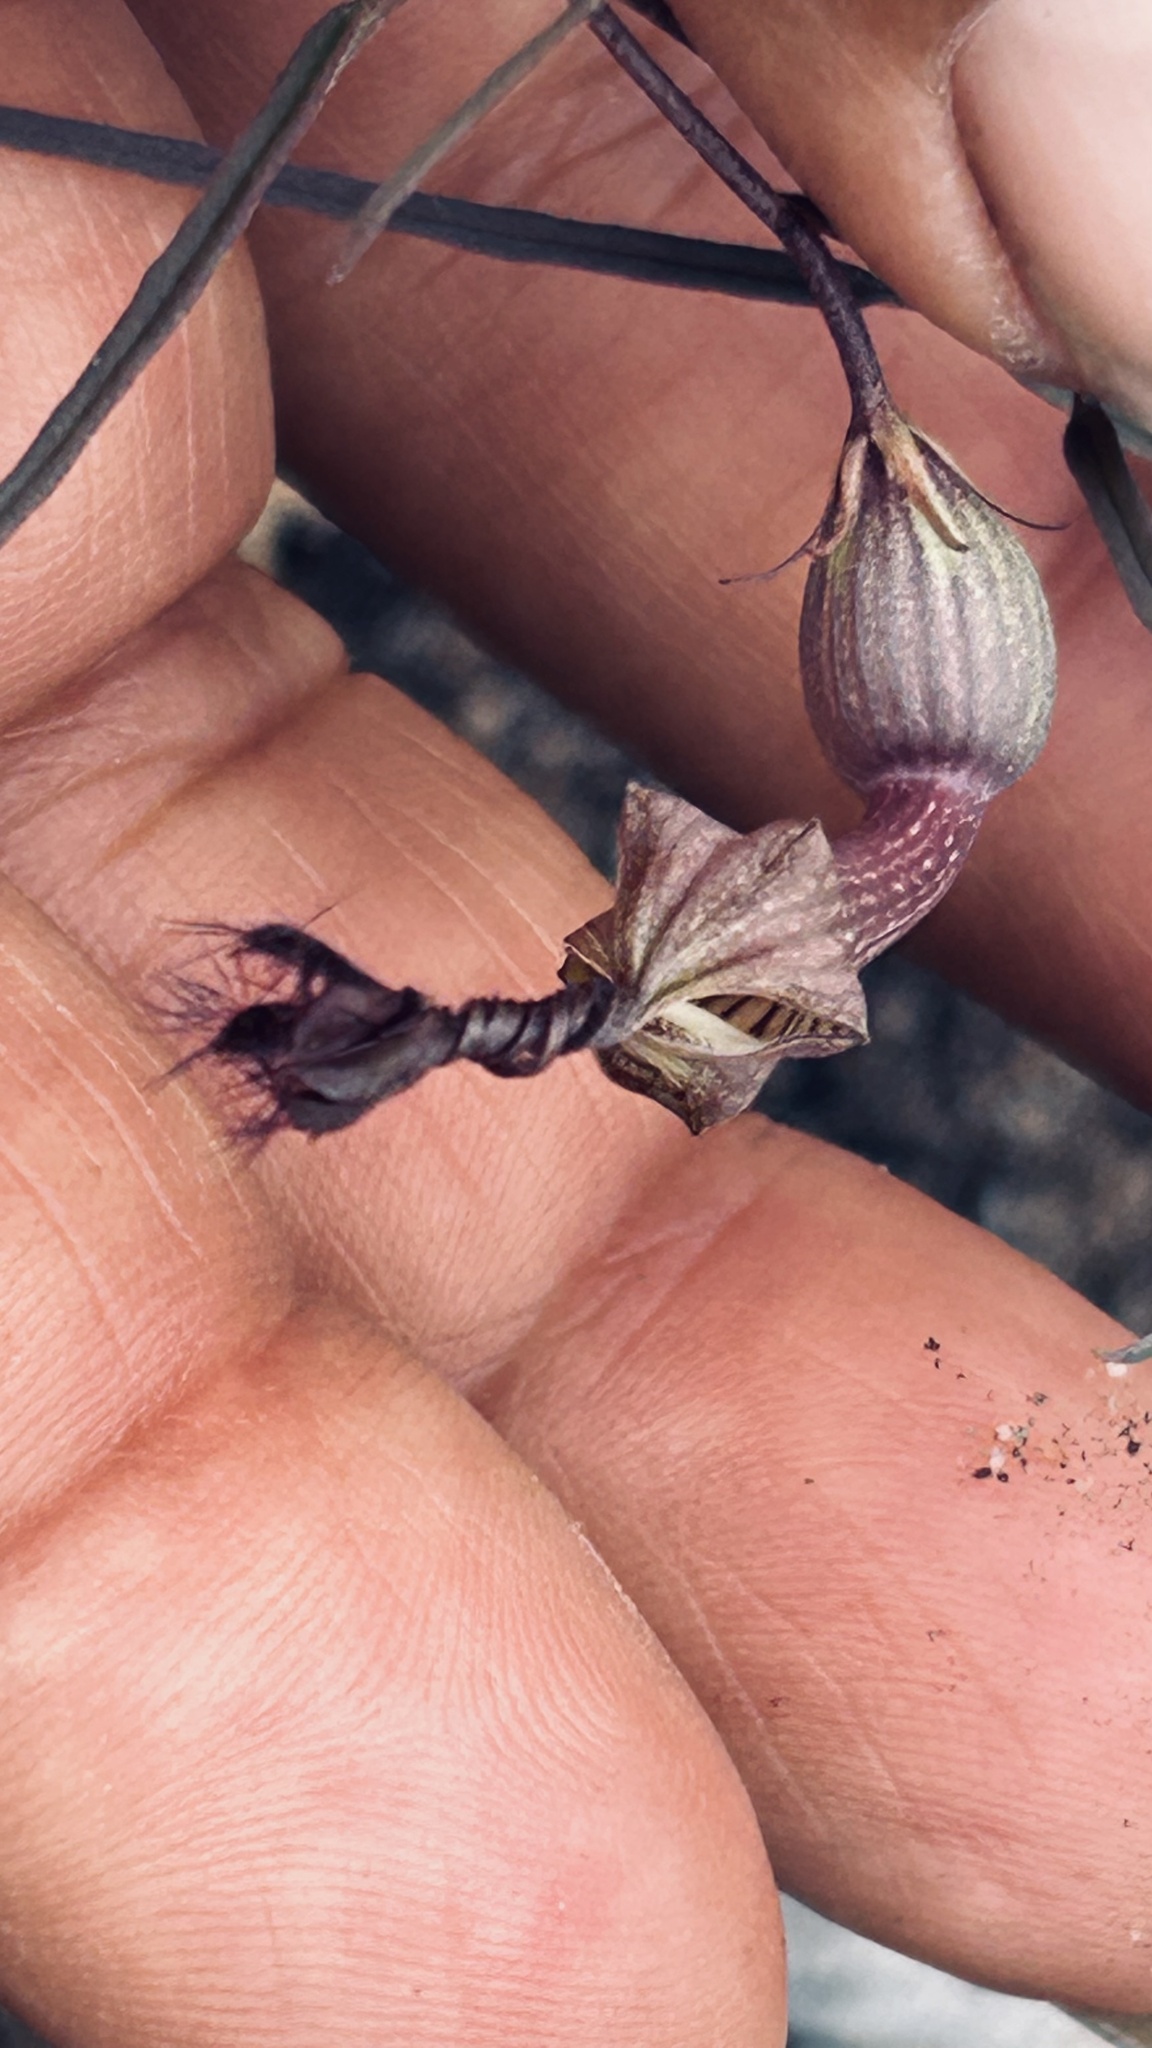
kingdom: Plantae
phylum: Tracheophyta
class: Magnoliopsida
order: Gentianales
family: Apocynaceae
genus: Ceropegia
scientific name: Ceropegia barbata
